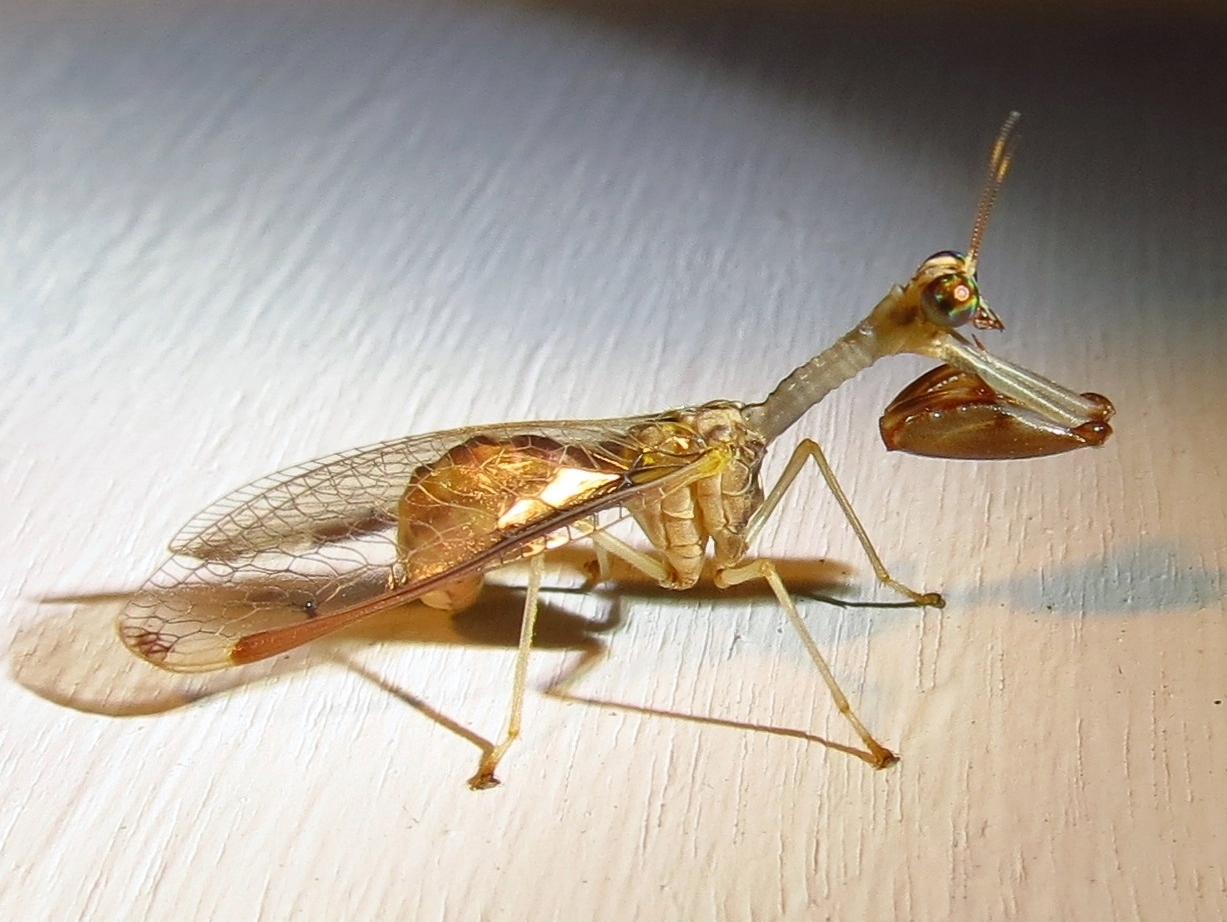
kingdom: Animalia
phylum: Arthropoda
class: Insecta
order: Neuroptera
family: Mantispidae
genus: Dicromantispa
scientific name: Dicromantispa interrupta
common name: Four-spotted mantidfly
